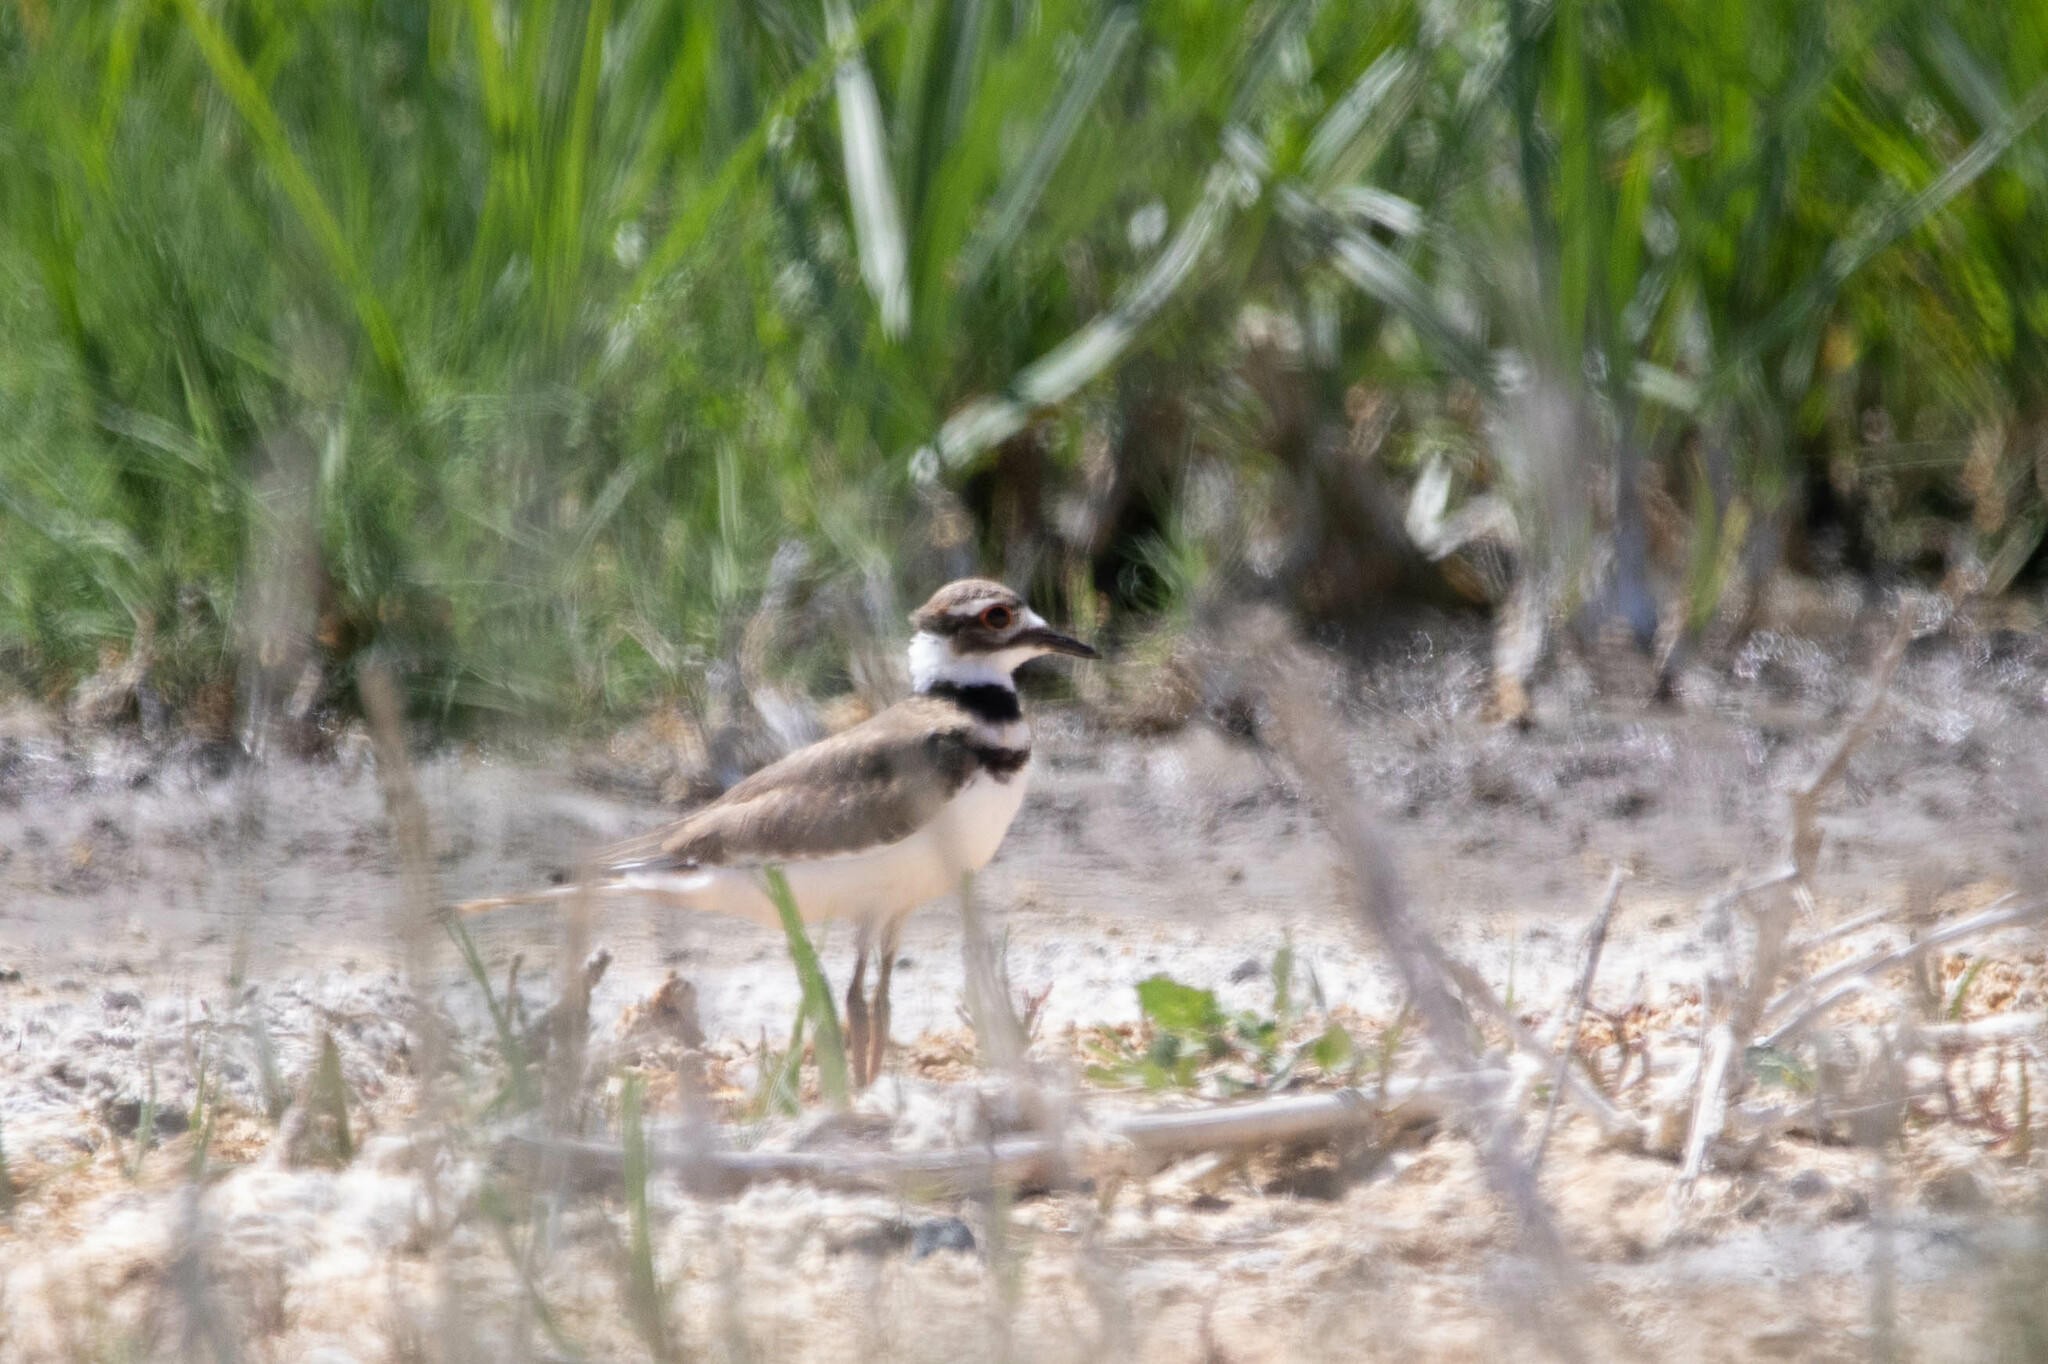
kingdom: Animalia
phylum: Chordata
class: Aves
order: Charadriiformes
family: Charadriidae
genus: Charadrius
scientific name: Charadrius vociferus
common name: Killdeer
